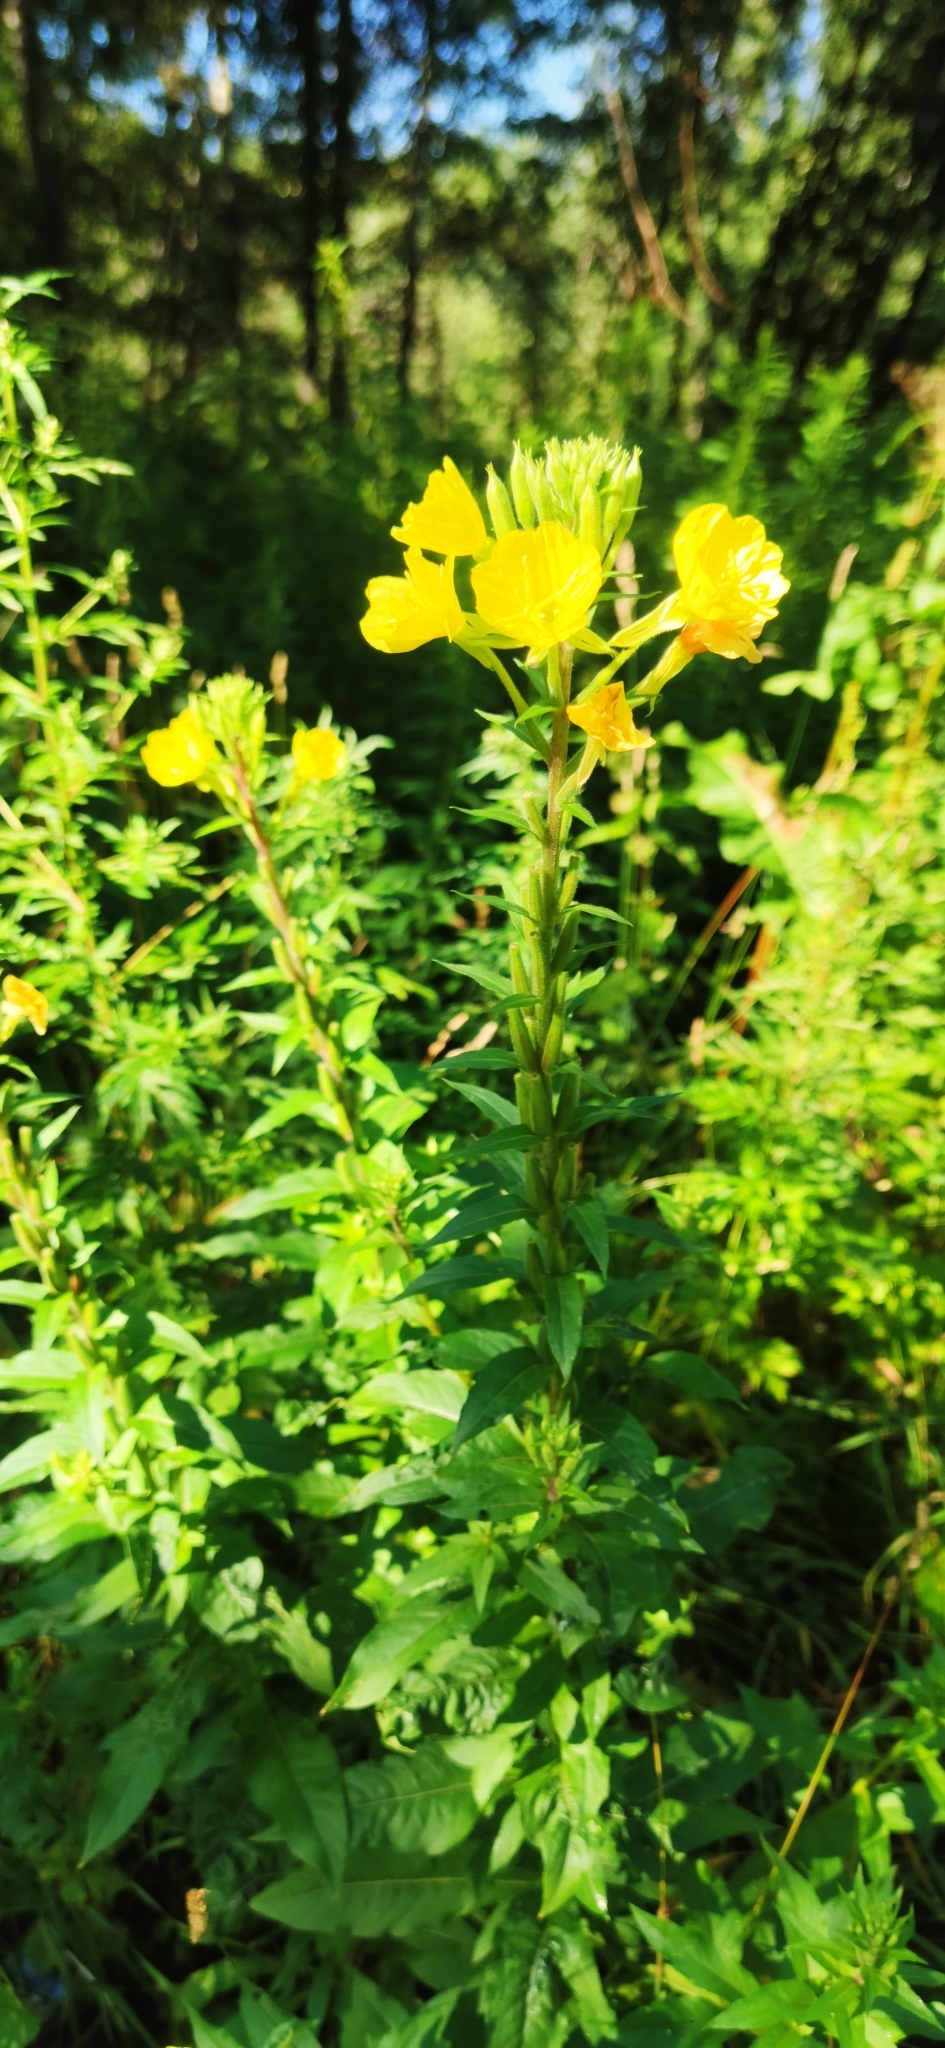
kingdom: Plantae
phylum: Tracheophyta
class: Magnoliopsida
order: Myrtales
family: Onagraceae
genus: Oenothera
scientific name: Oenothera rubricaulis
